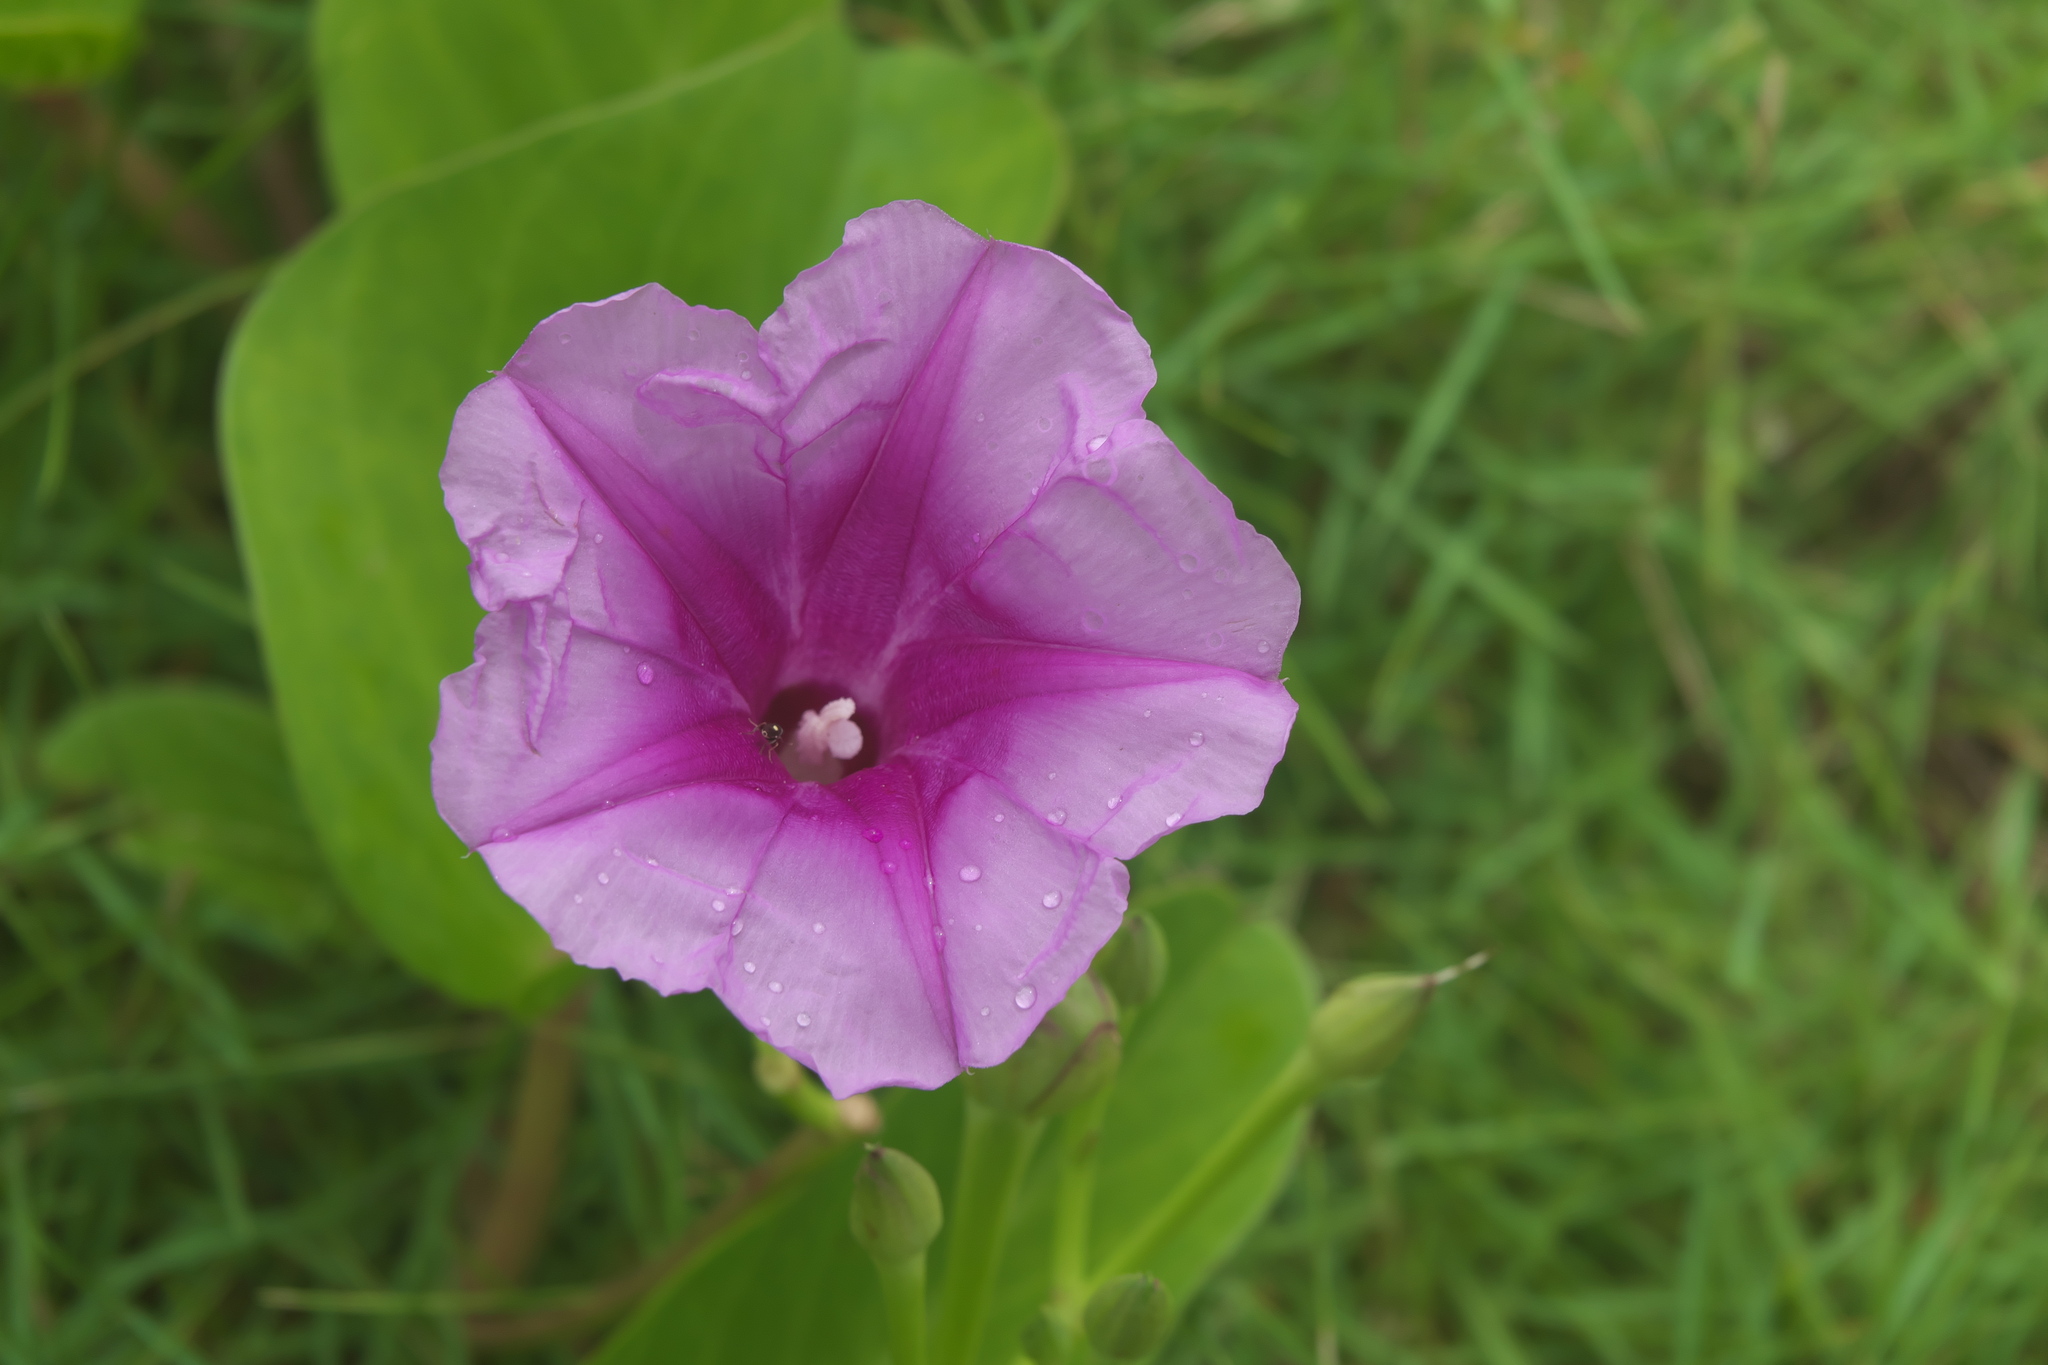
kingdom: Plantae
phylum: Tracheophyta
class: Magnoliopsida
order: Solanales
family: Convolvulaceae
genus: Ipomoea
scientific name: Ipomoea pes-caprae
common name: Beach morning glory
